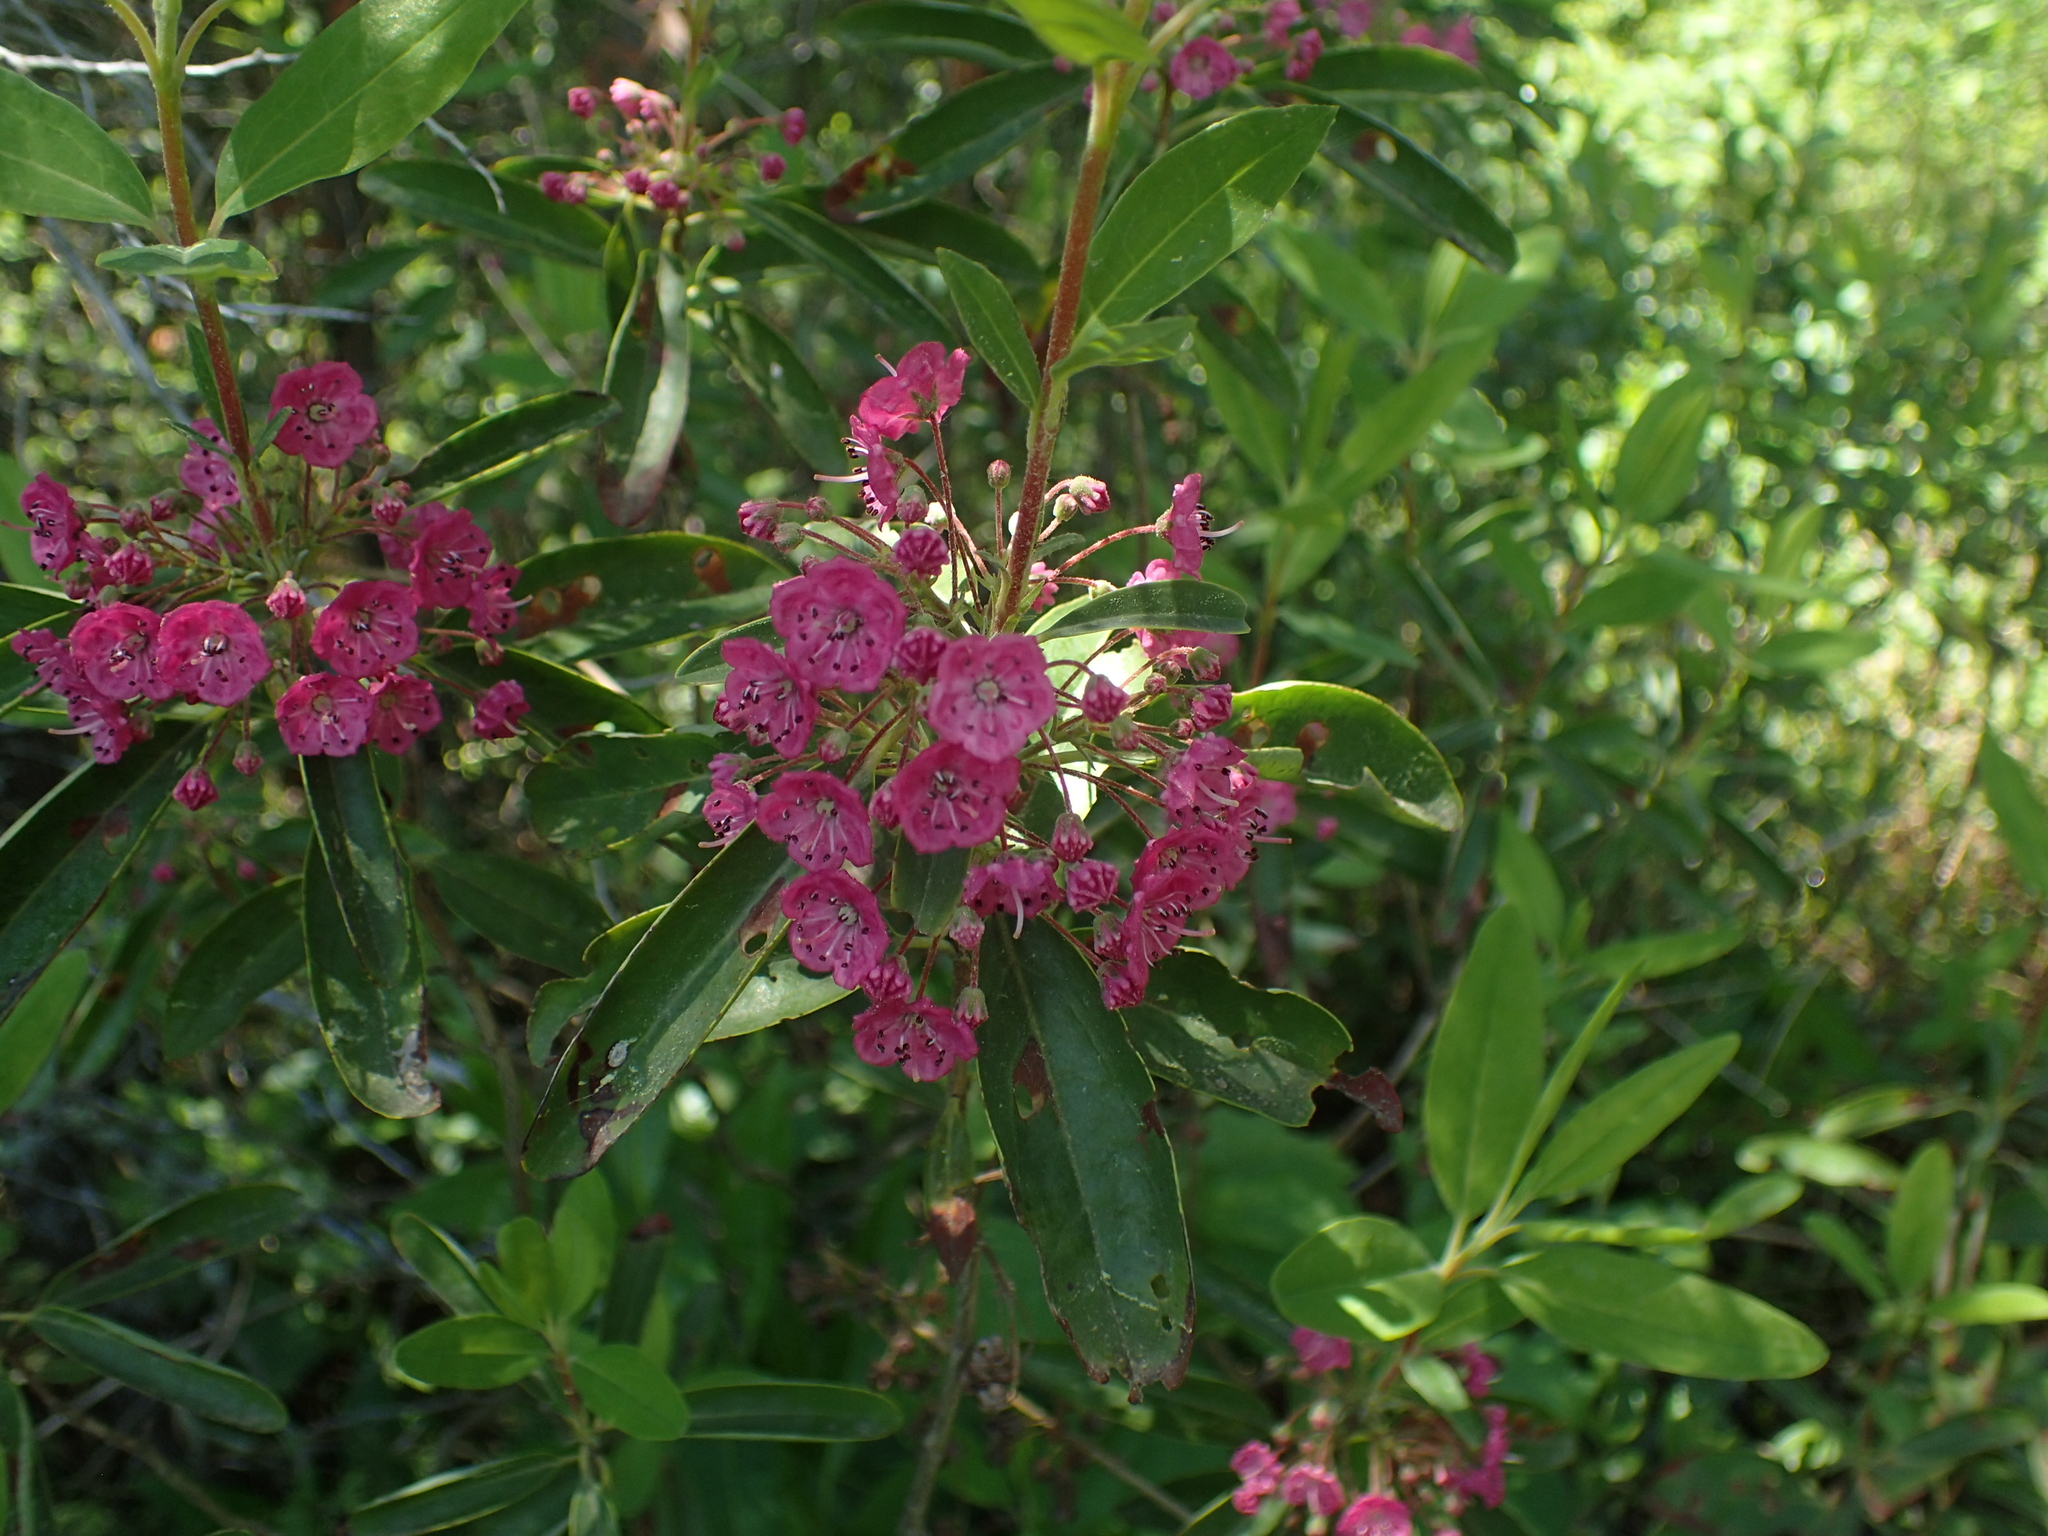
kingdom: Plantae
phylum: Tracheophyta
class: Magnoliopsida
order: Ericales
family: Ericaceae
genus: Kalmia
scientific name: Kalmia angustifolia
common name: Sheep-laurel
